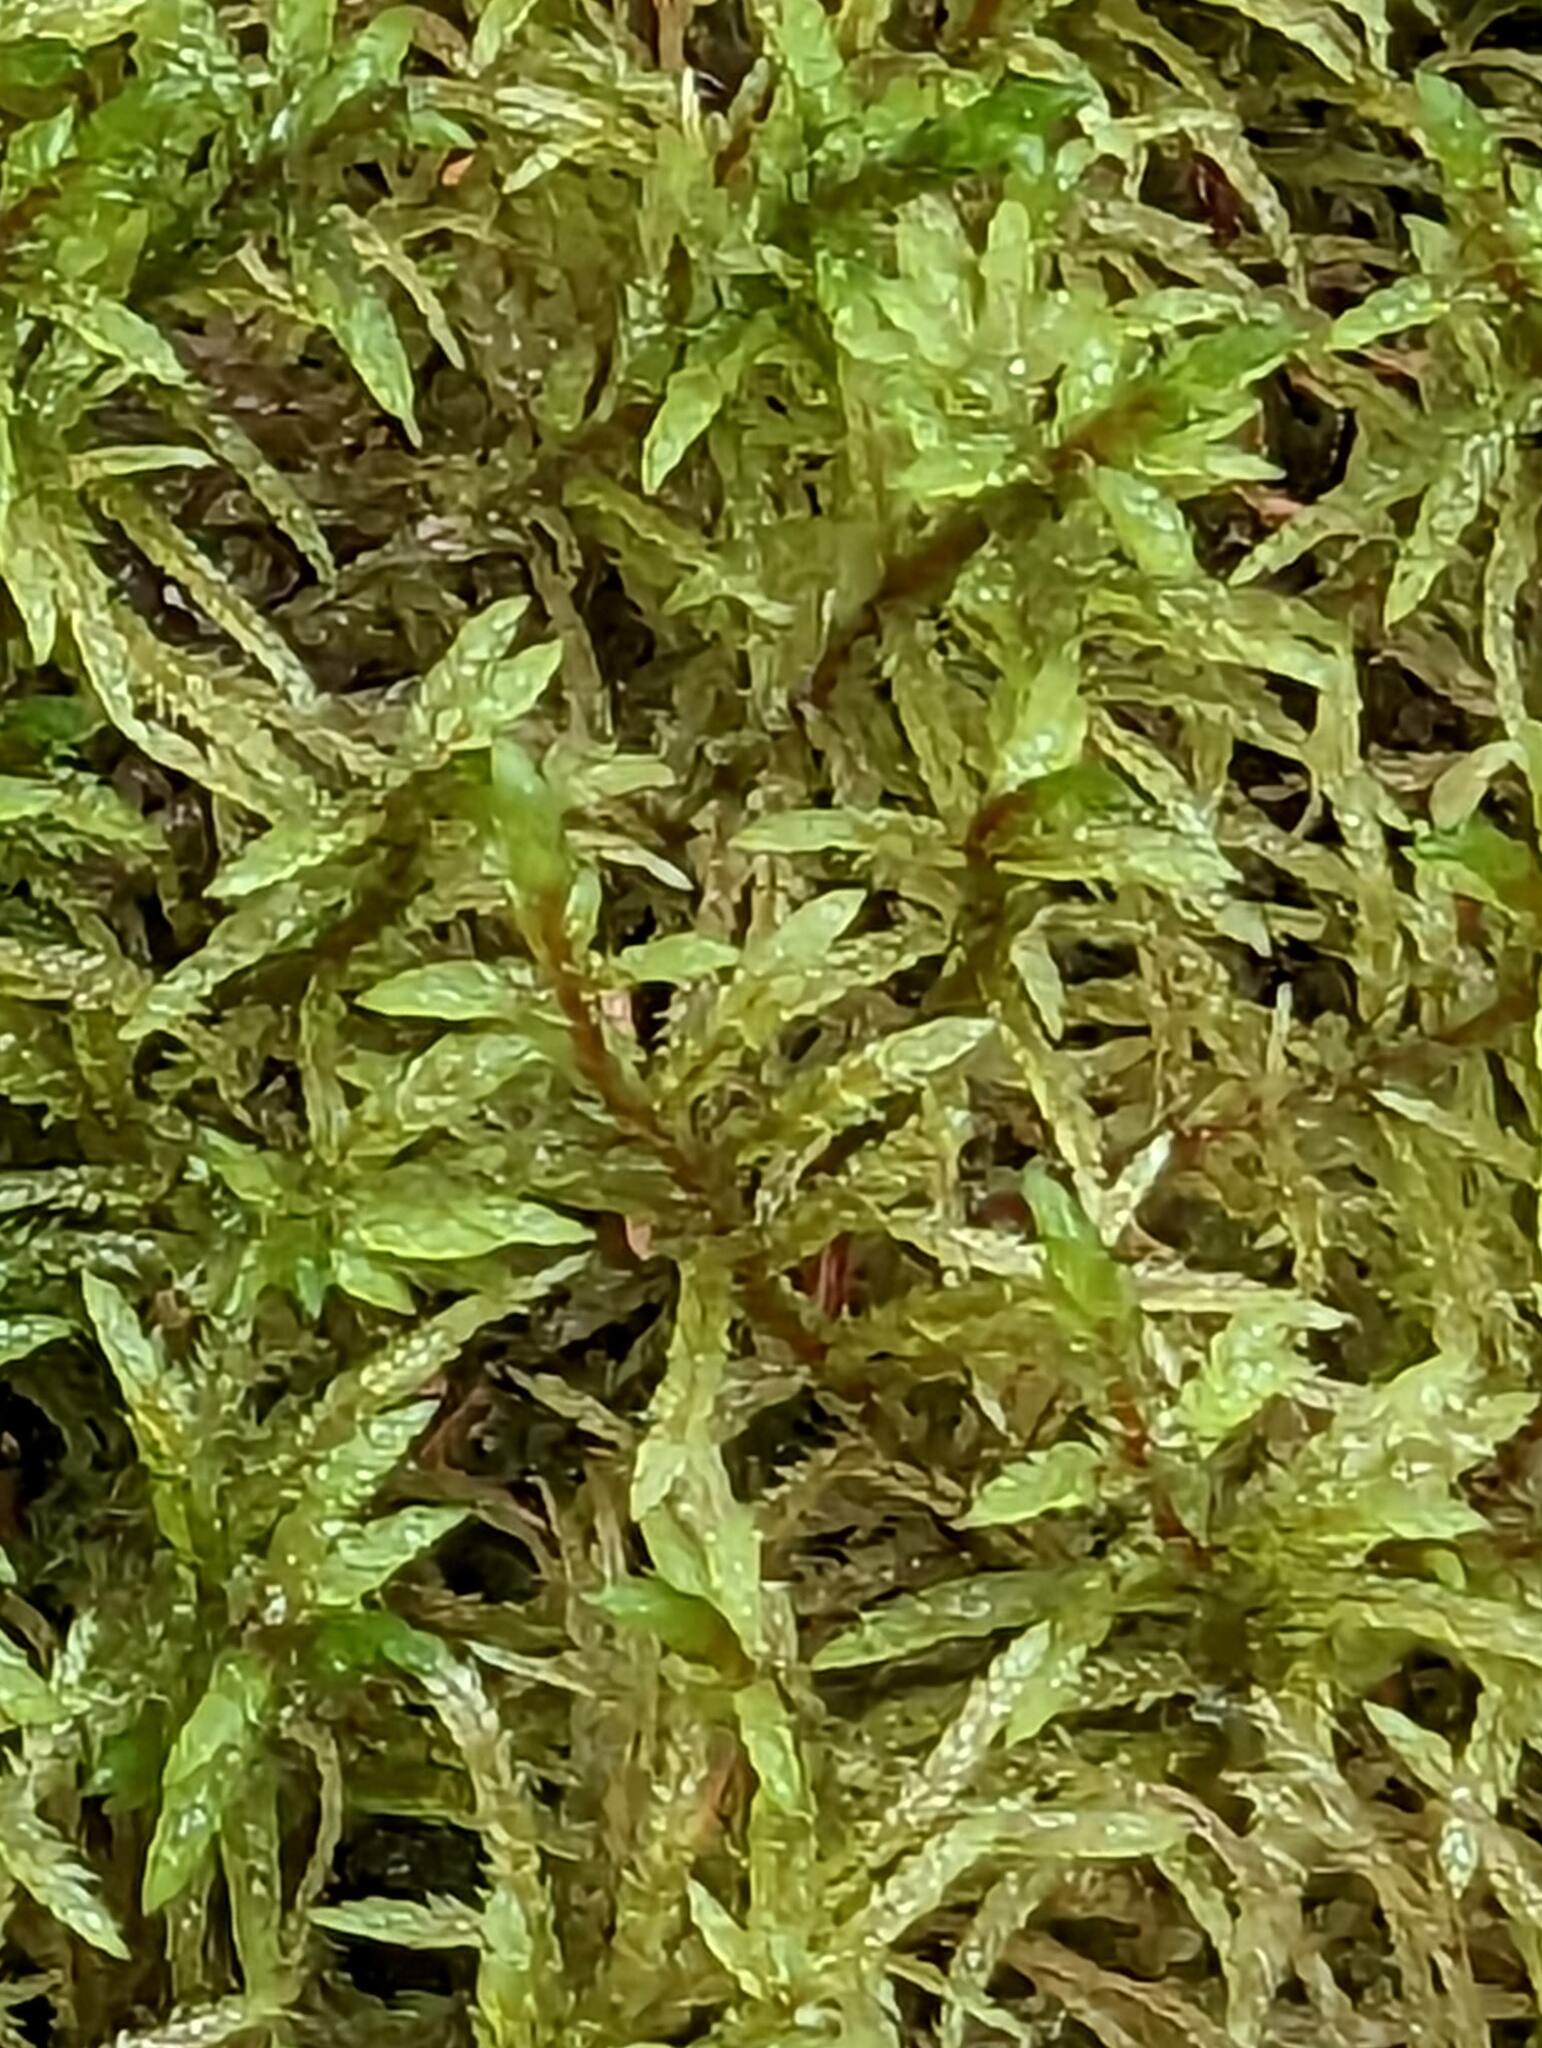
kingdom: Plantae
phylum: Bryophyta
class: Bryopsida
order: Hypnales
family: Hylocomiaceae
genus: Pleurozium
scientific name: Pleurozium schreberi
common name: Red-stemmed feather moss
